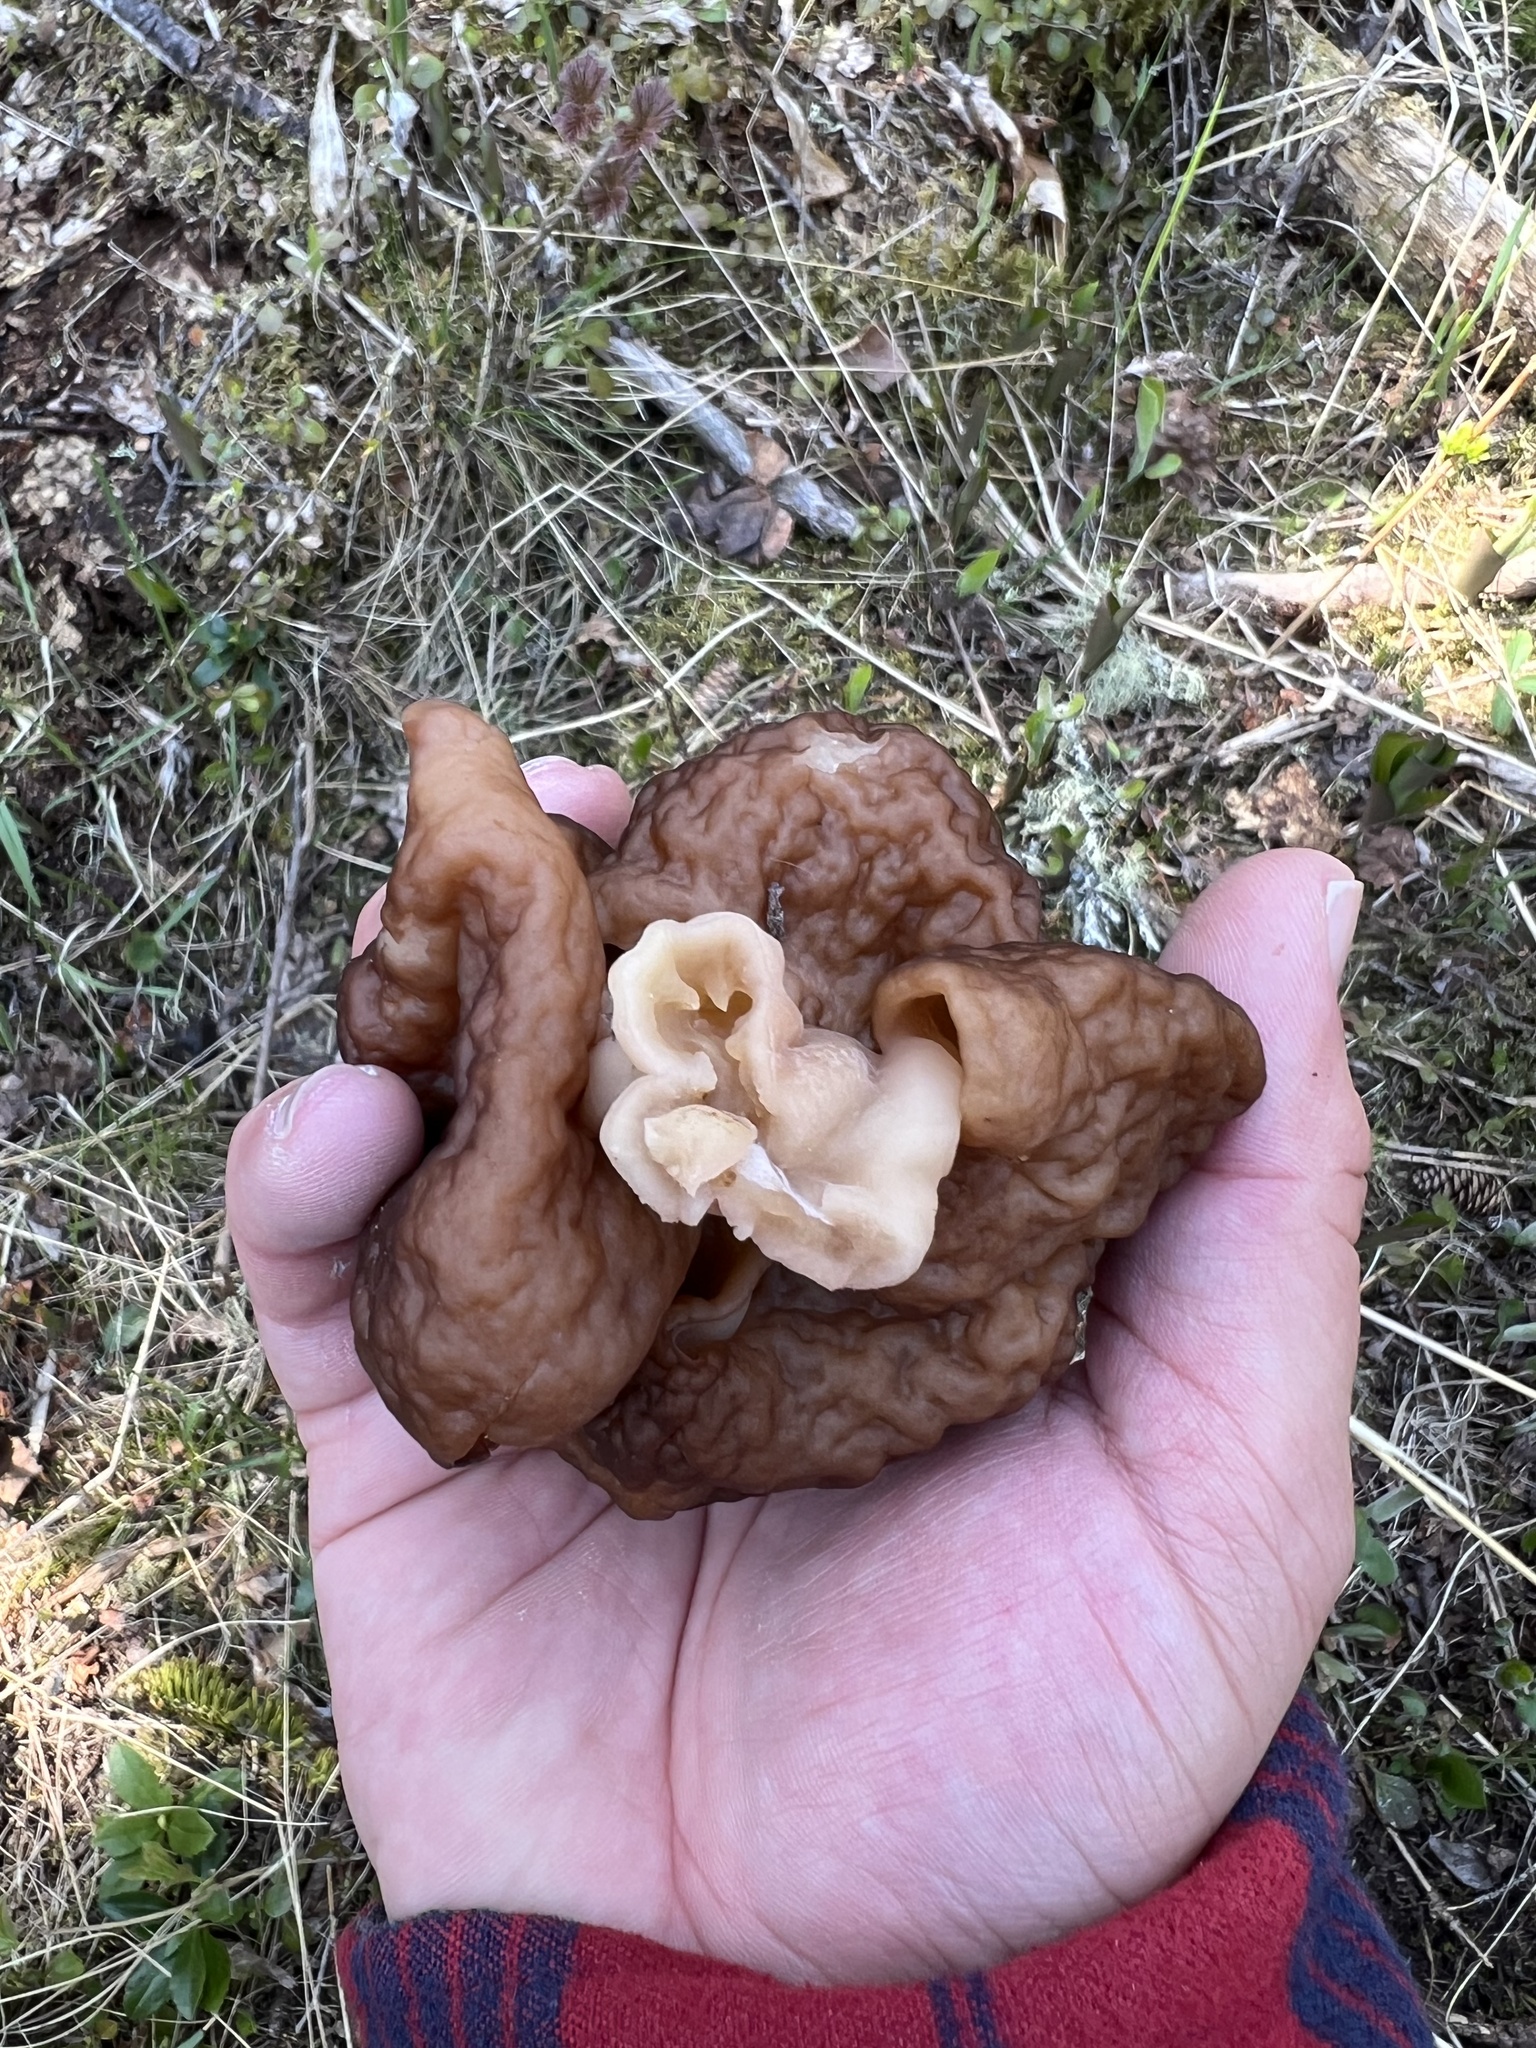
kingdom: Fungi
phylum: Ascomycota
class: Pezizomycetes
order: Pezizales
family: Discinaceae
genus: Gyromitra
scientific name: Gyromitra esculenta
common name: False morel
